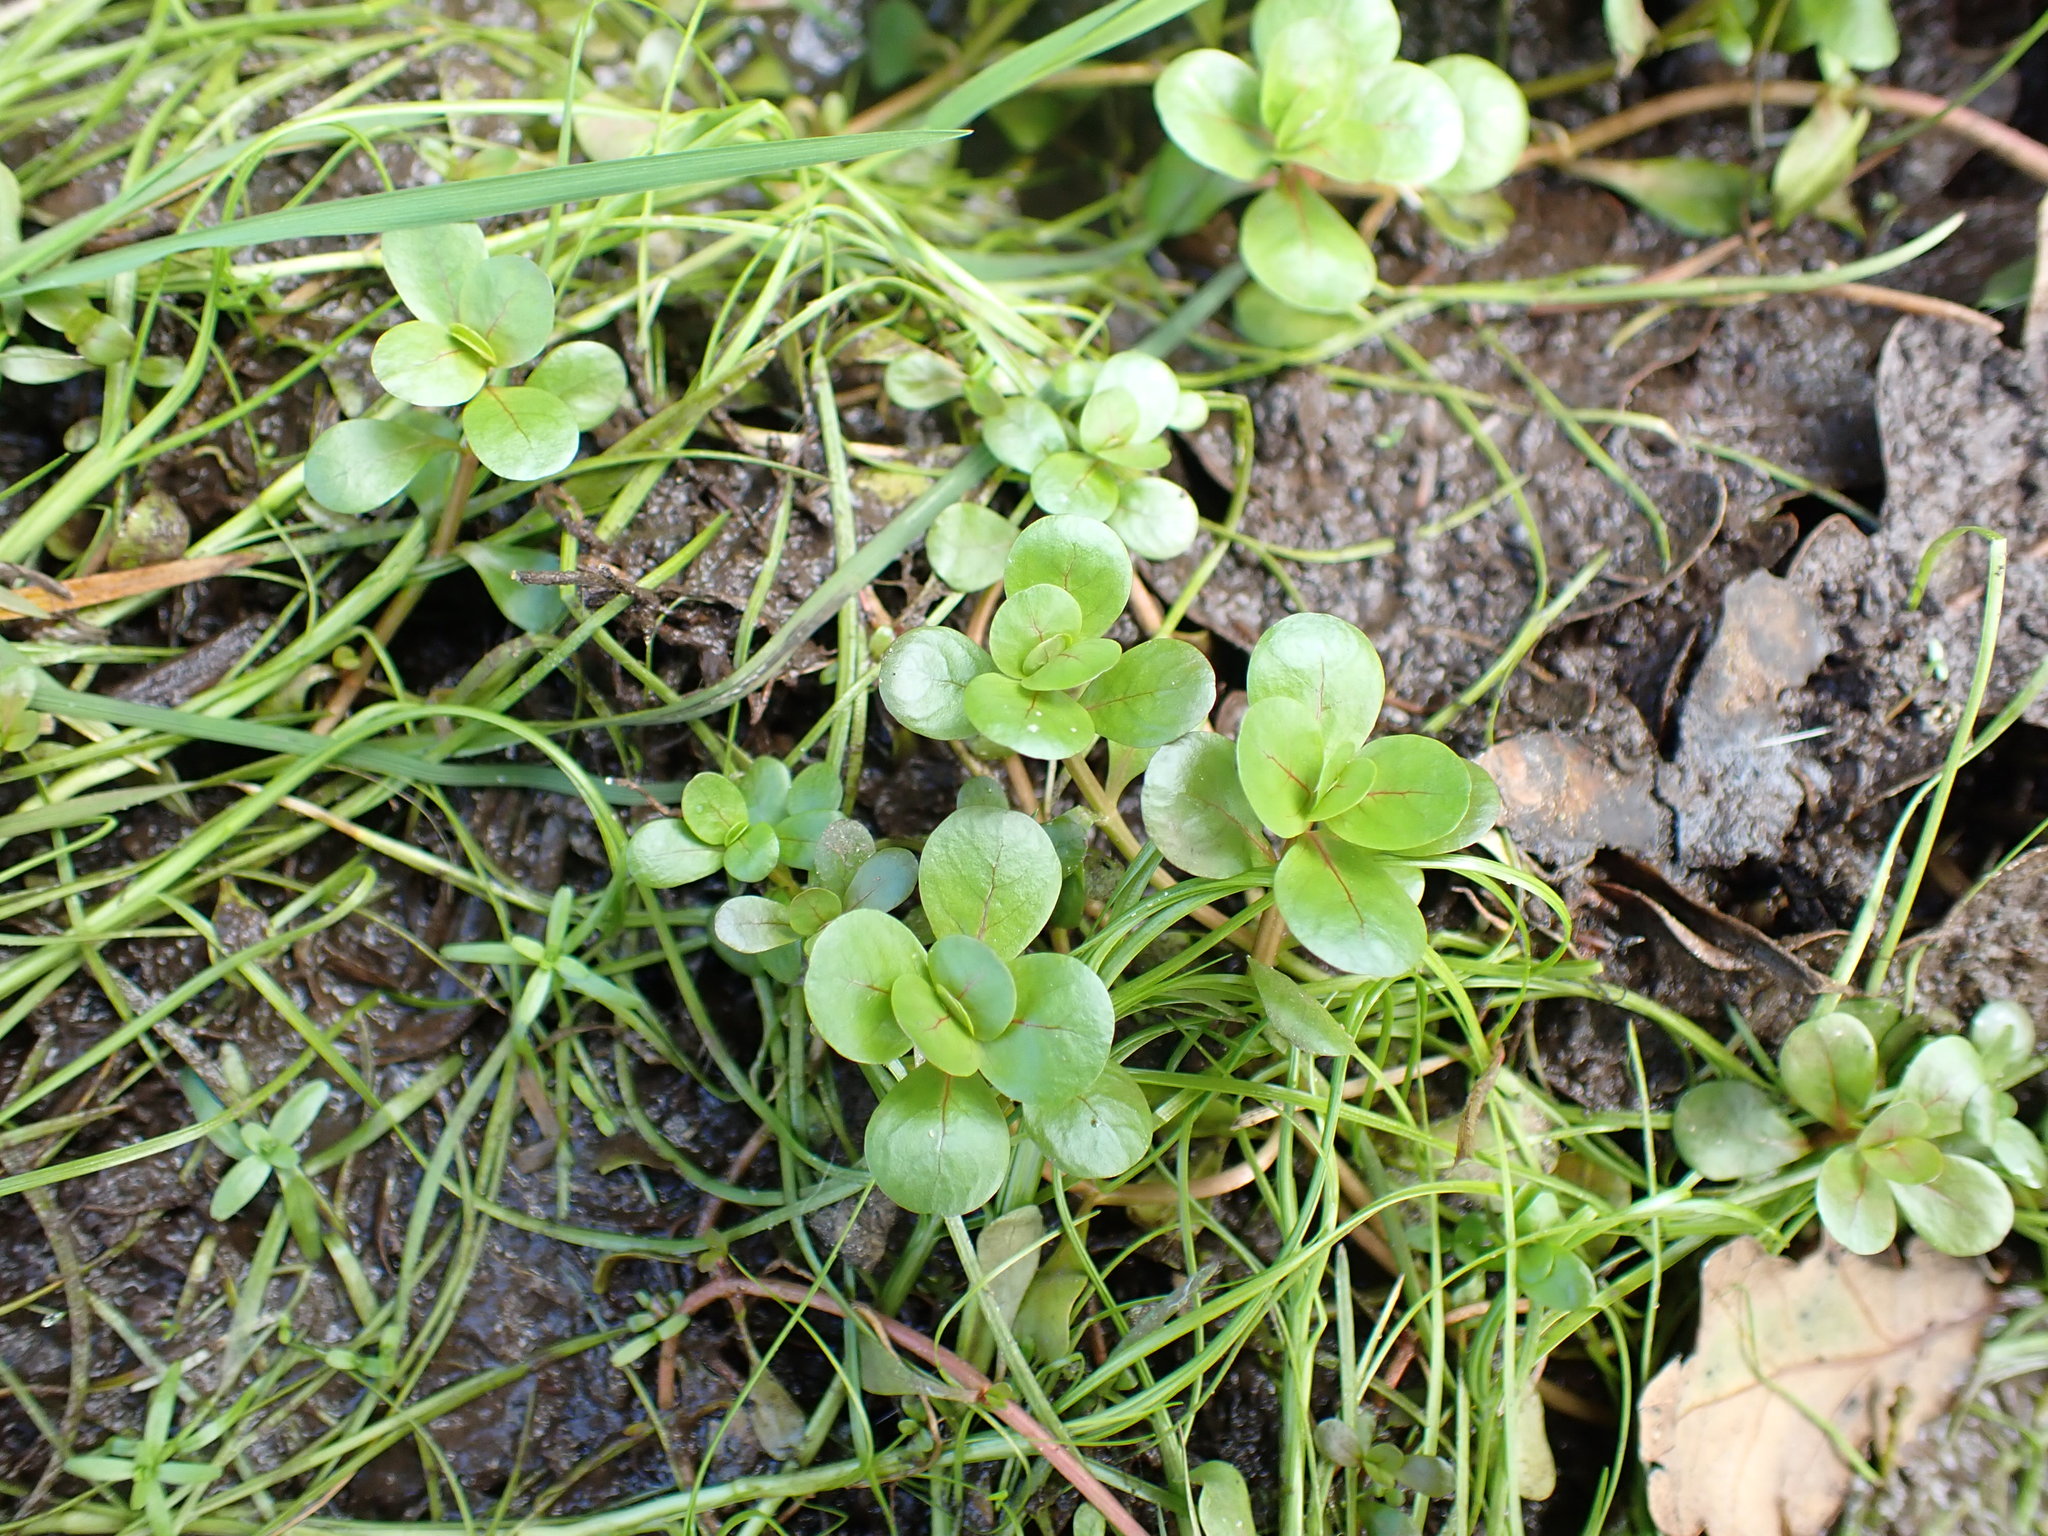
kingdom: Plantae
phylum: Tracheophyta
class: Magnoliopsida
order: Myrtales
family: Lythraceae
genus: Lythrum
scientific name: Lythrum portula
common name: Water purslane
